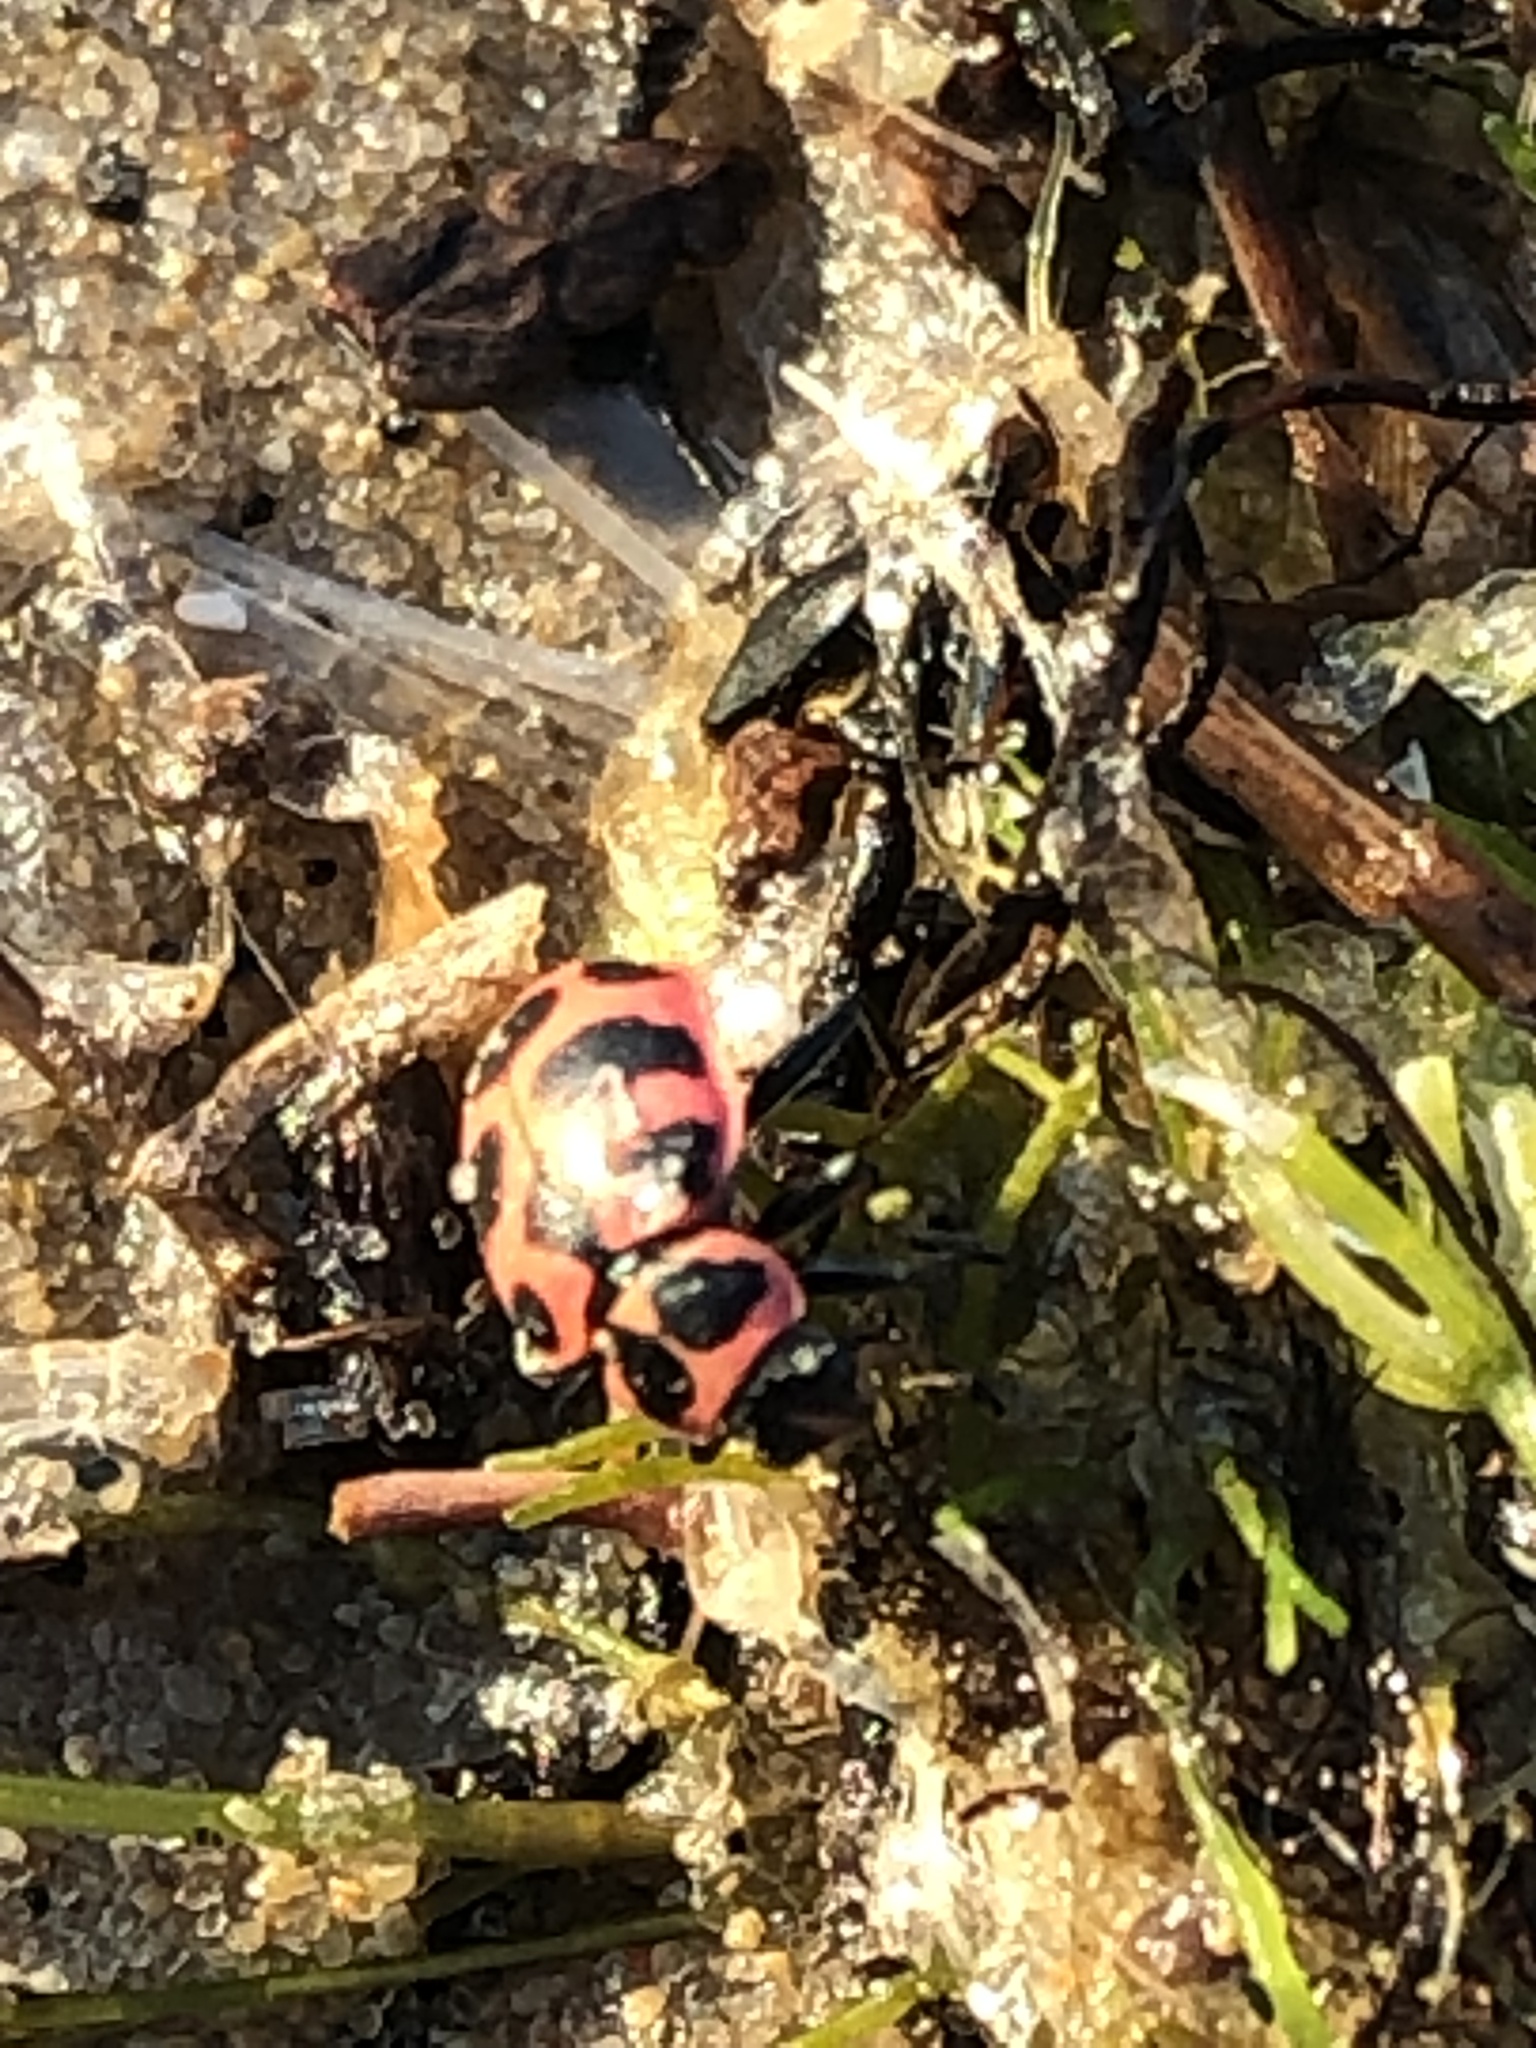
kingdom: Animalia
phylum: Arthropoda
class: Insecta
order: Coleoptera
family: Coccinellidae
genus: Coleomegilla
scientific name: Coleomegilla maculata
